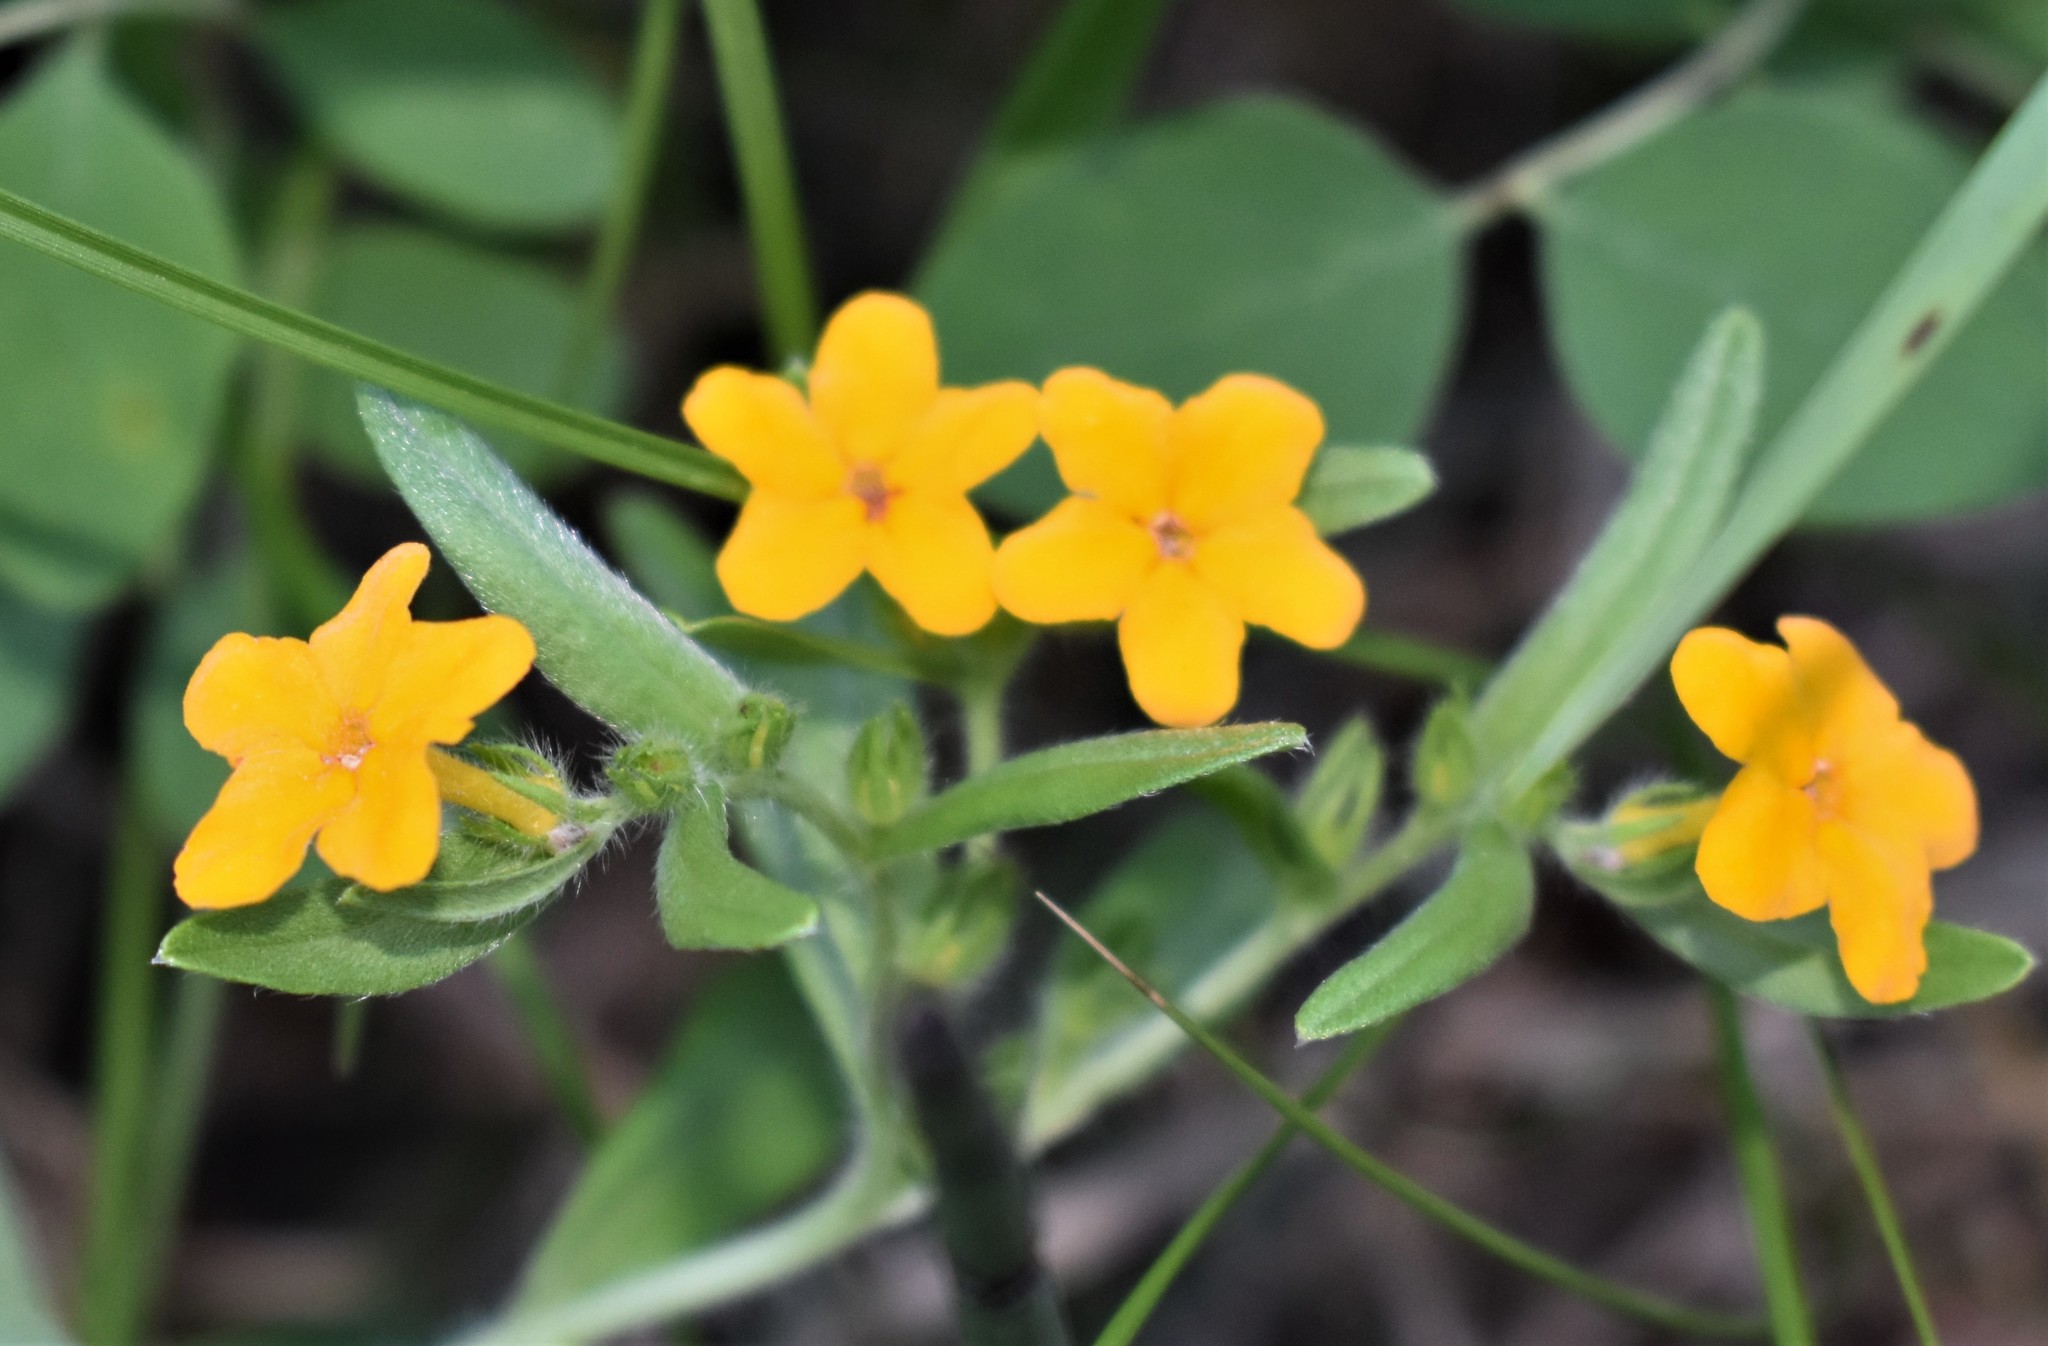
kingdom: Plantae
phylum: Tracheophyta
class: Magnoliopsida
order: Boraginales
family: Boraginaceae
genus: Lithospermum
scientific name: Lithospermum canescens
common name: Hoary puccoon
